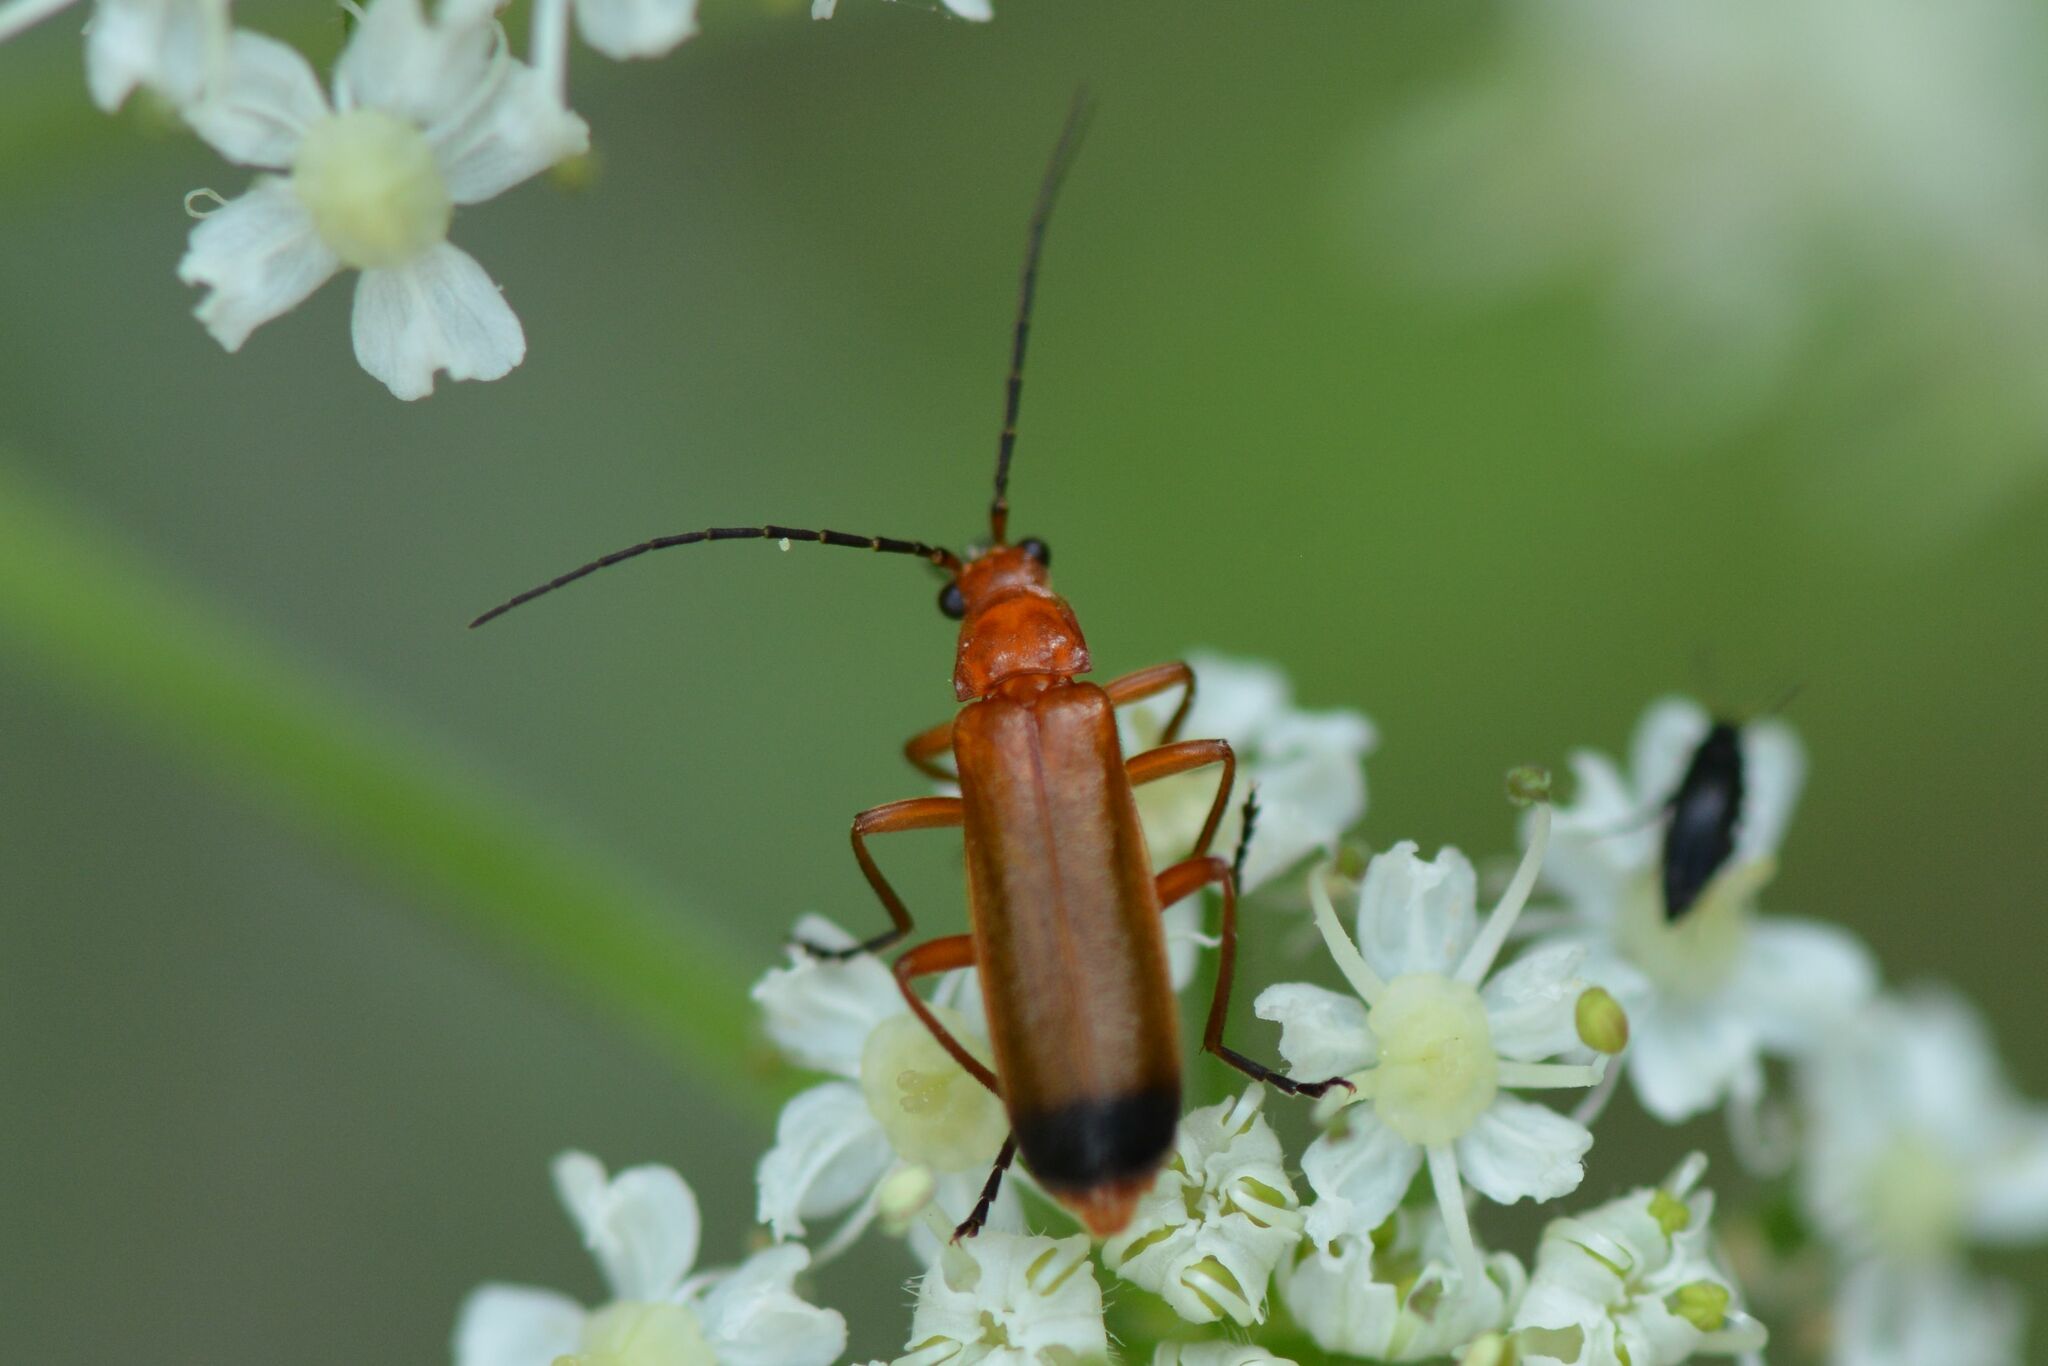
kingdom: Animalia
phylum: Arthropoda
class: Insecta
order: Coleoptera
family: Cantharidae
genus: Rhagonycha
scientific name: Rhagonycha fulva
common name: Common red soldier beetle
